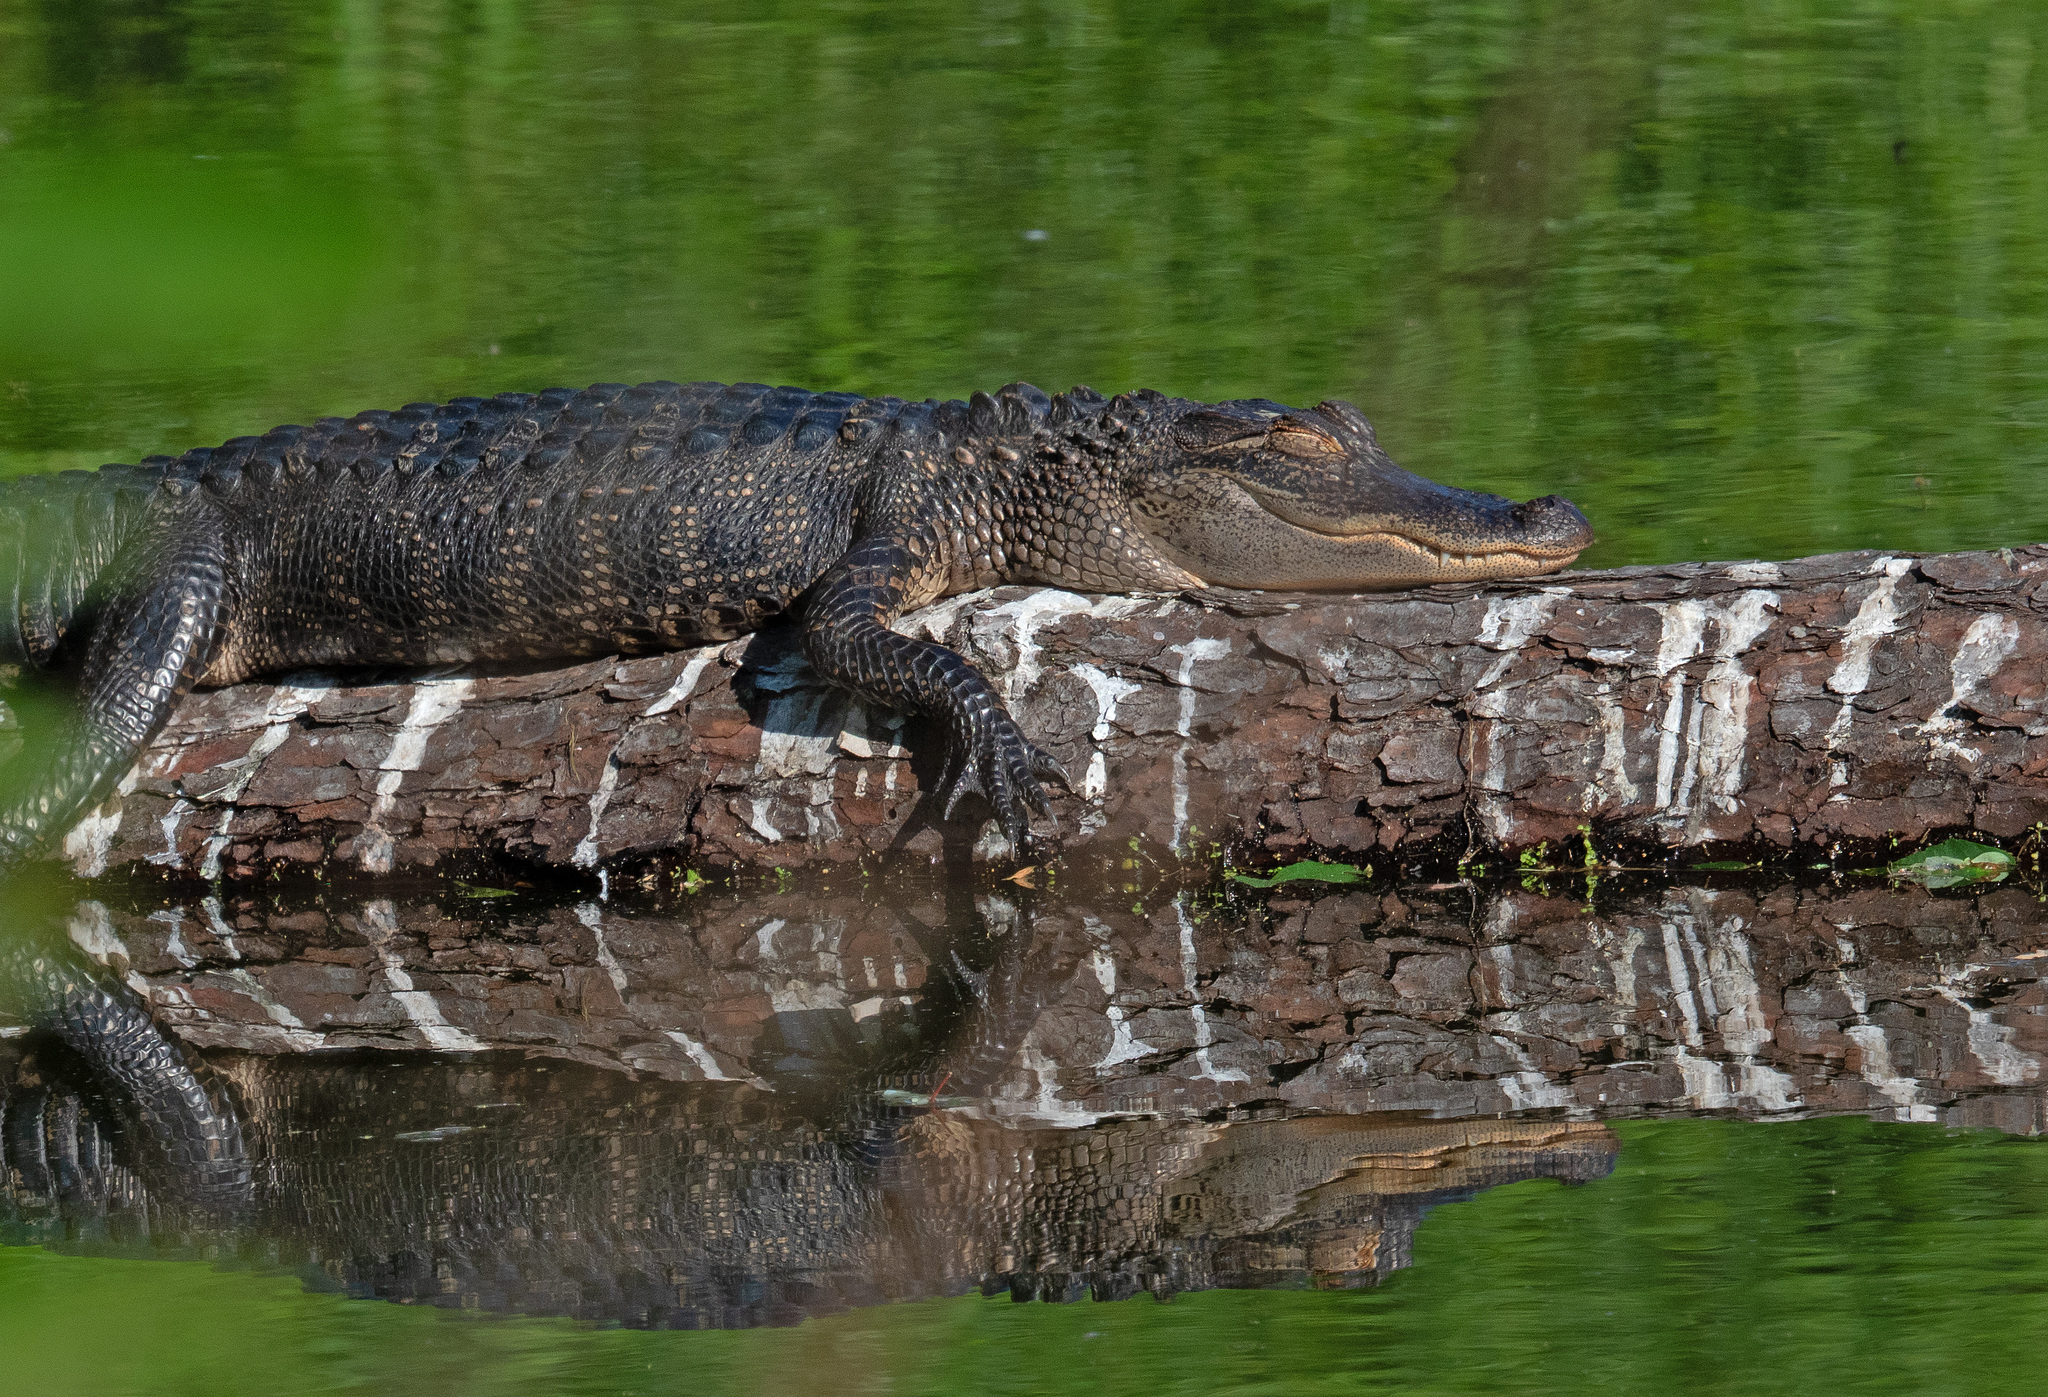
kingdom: Animalia
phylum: Chordata
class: Crocodylia
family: Alligatoridae
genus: Alligator
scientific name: Alligator mississippiensis
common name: American alligator
